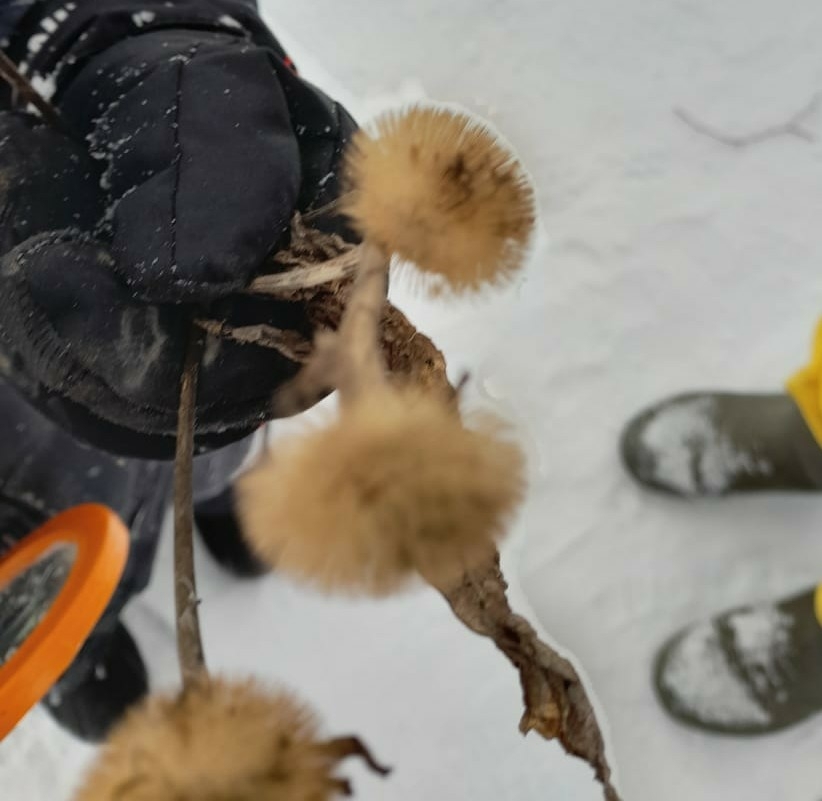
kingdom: Plantae
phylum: Tracheophyta
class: Magnoliopsida
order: Asterales
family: Asteraceae
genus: Telekia
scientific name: Telekia speciosa
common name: Yellow oxeye
